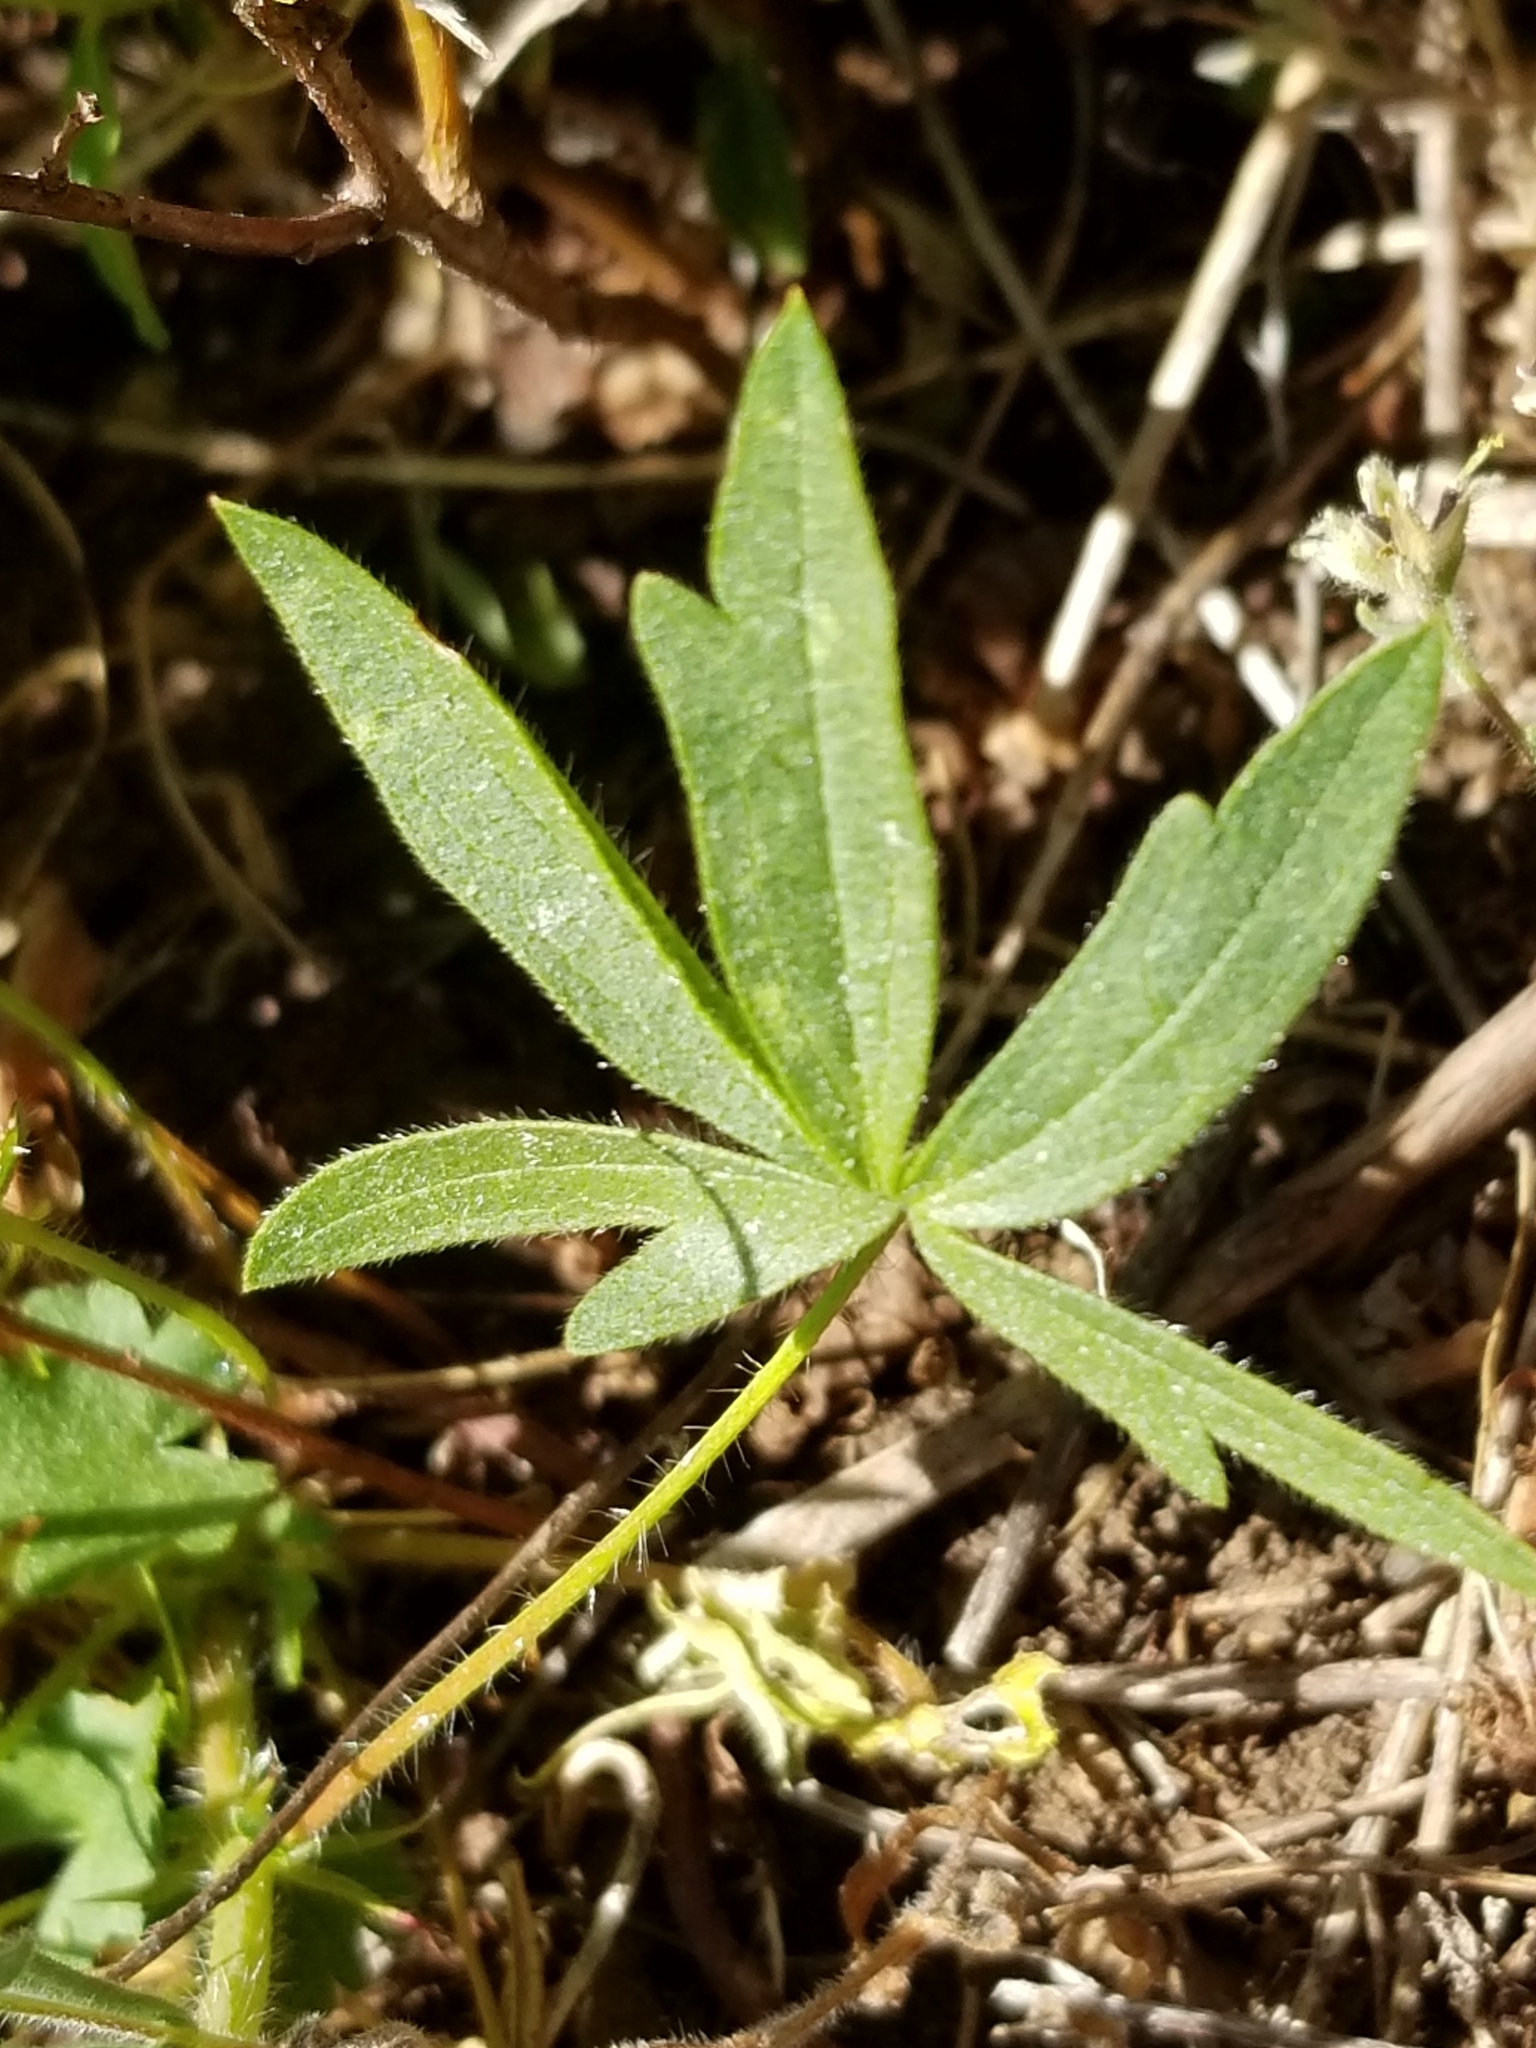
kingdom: Plantae
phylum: Tracheophyta
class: Magnoliopsida
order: Malvales
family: Malvaceae
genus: Sidalcea
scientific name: Sidalcea oregana
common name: Oregon checker-mallow
